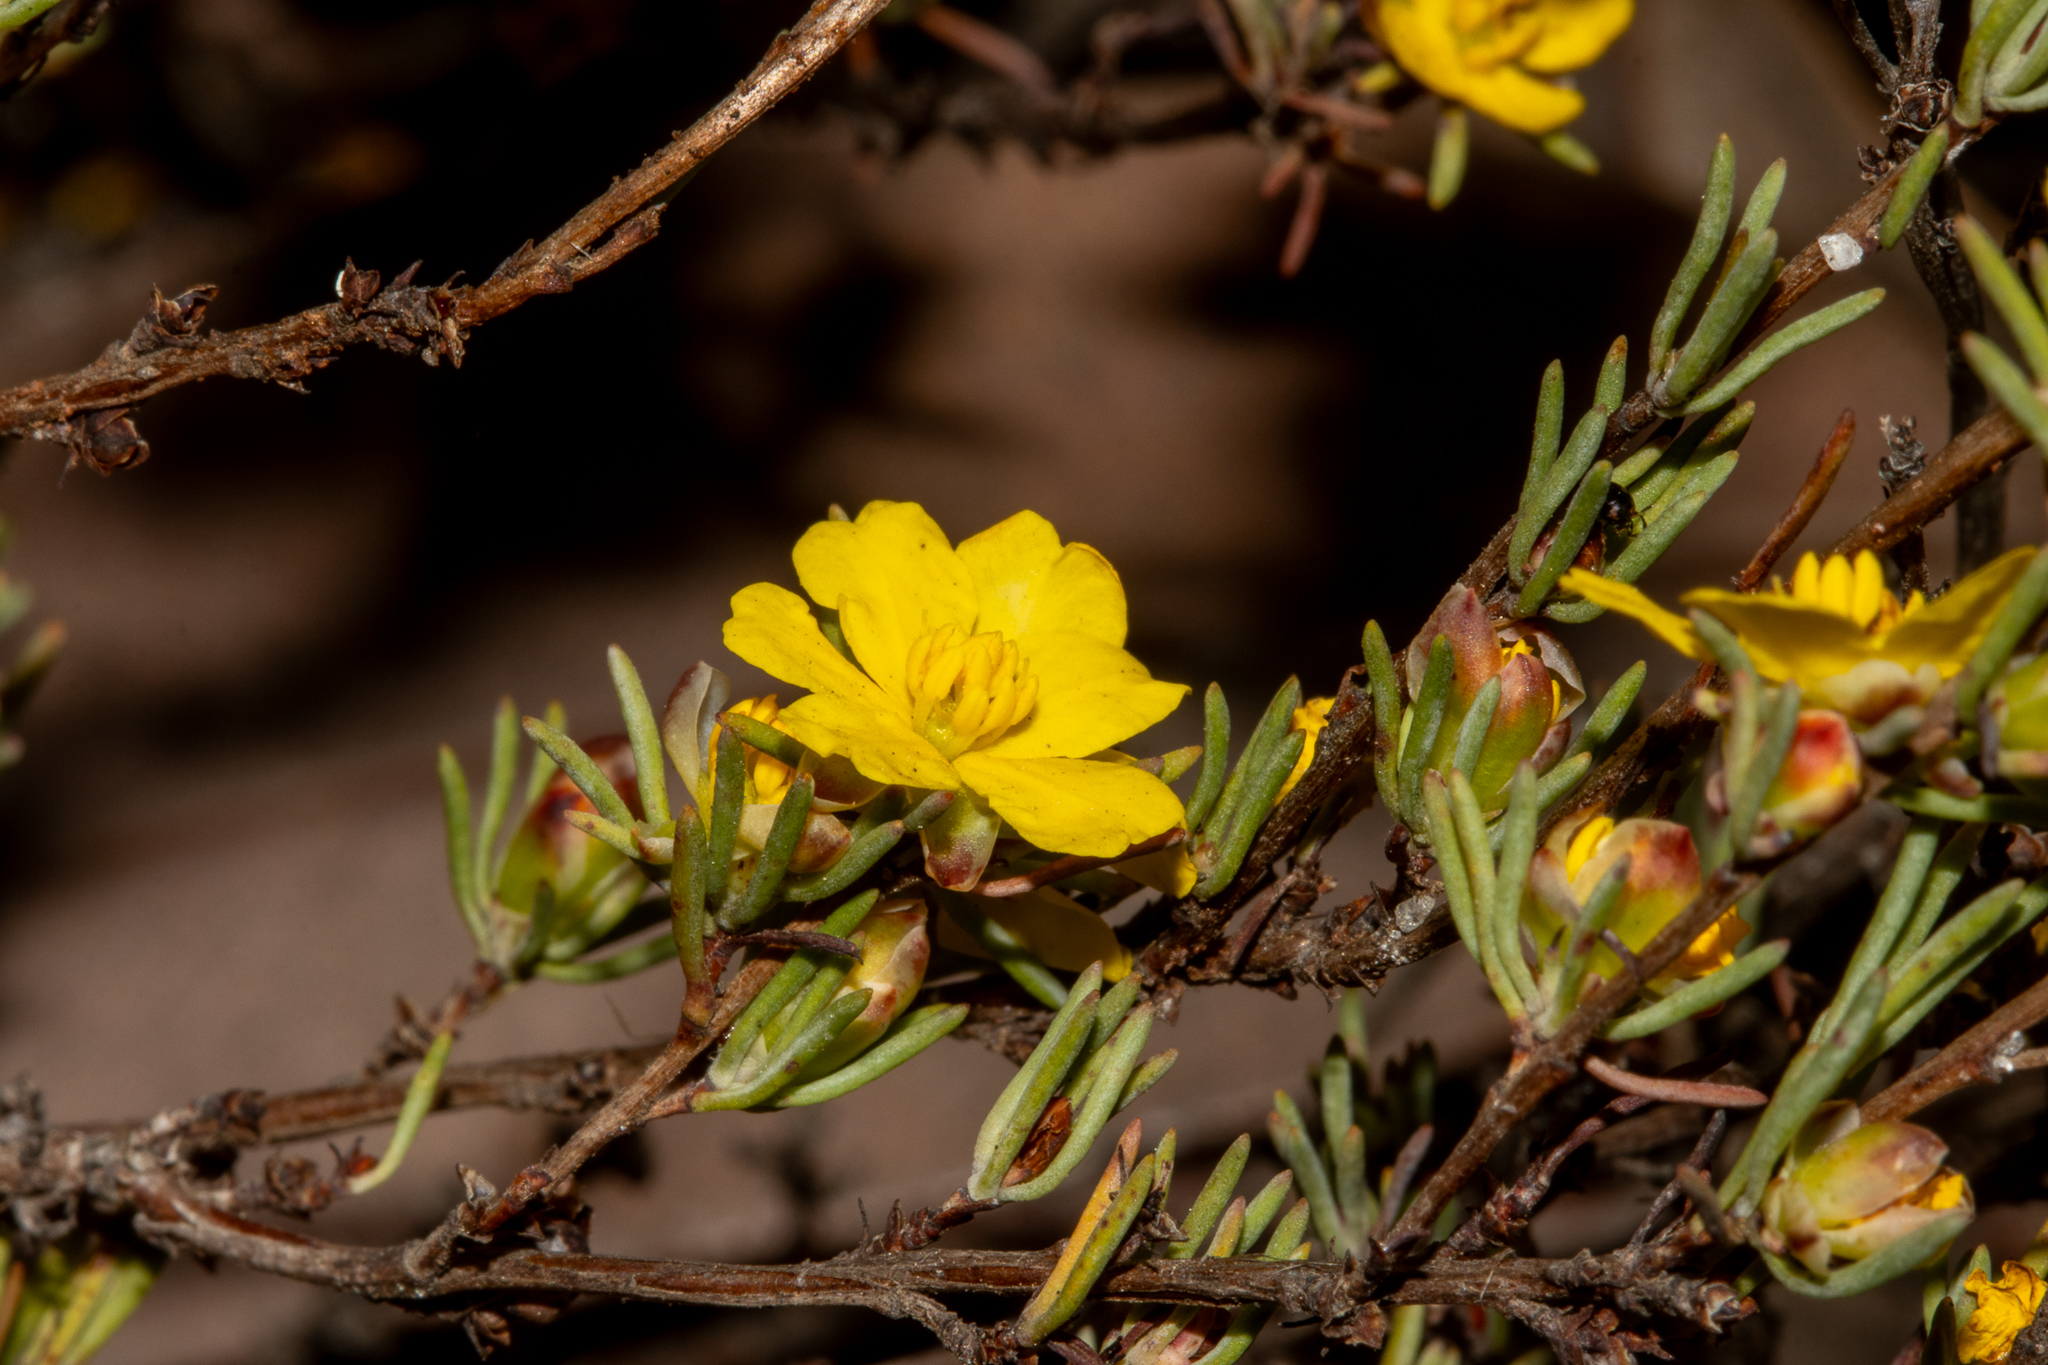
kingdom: Plantae
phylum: Tracheophyta
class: Magnoliopsida
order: Dilleniales
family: Dilleniaceae
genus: Hibbertia
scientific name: Hibbertia hemignosta
